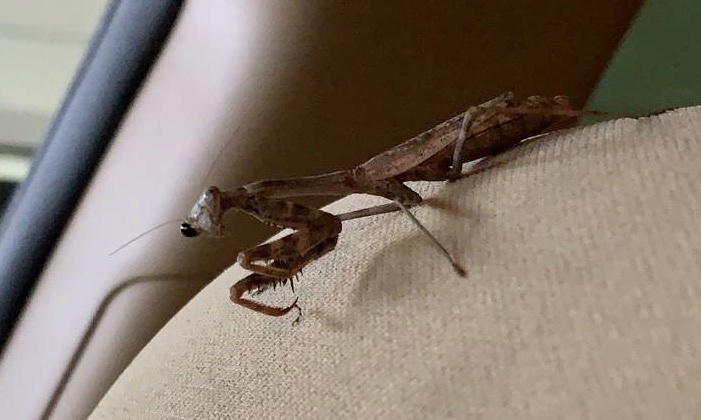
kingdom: Animalia
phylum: Arthropoda
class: Insecta
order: Mantodea
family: Mantidae
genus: Stagmomantis
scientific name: Stagmomantis carolina
